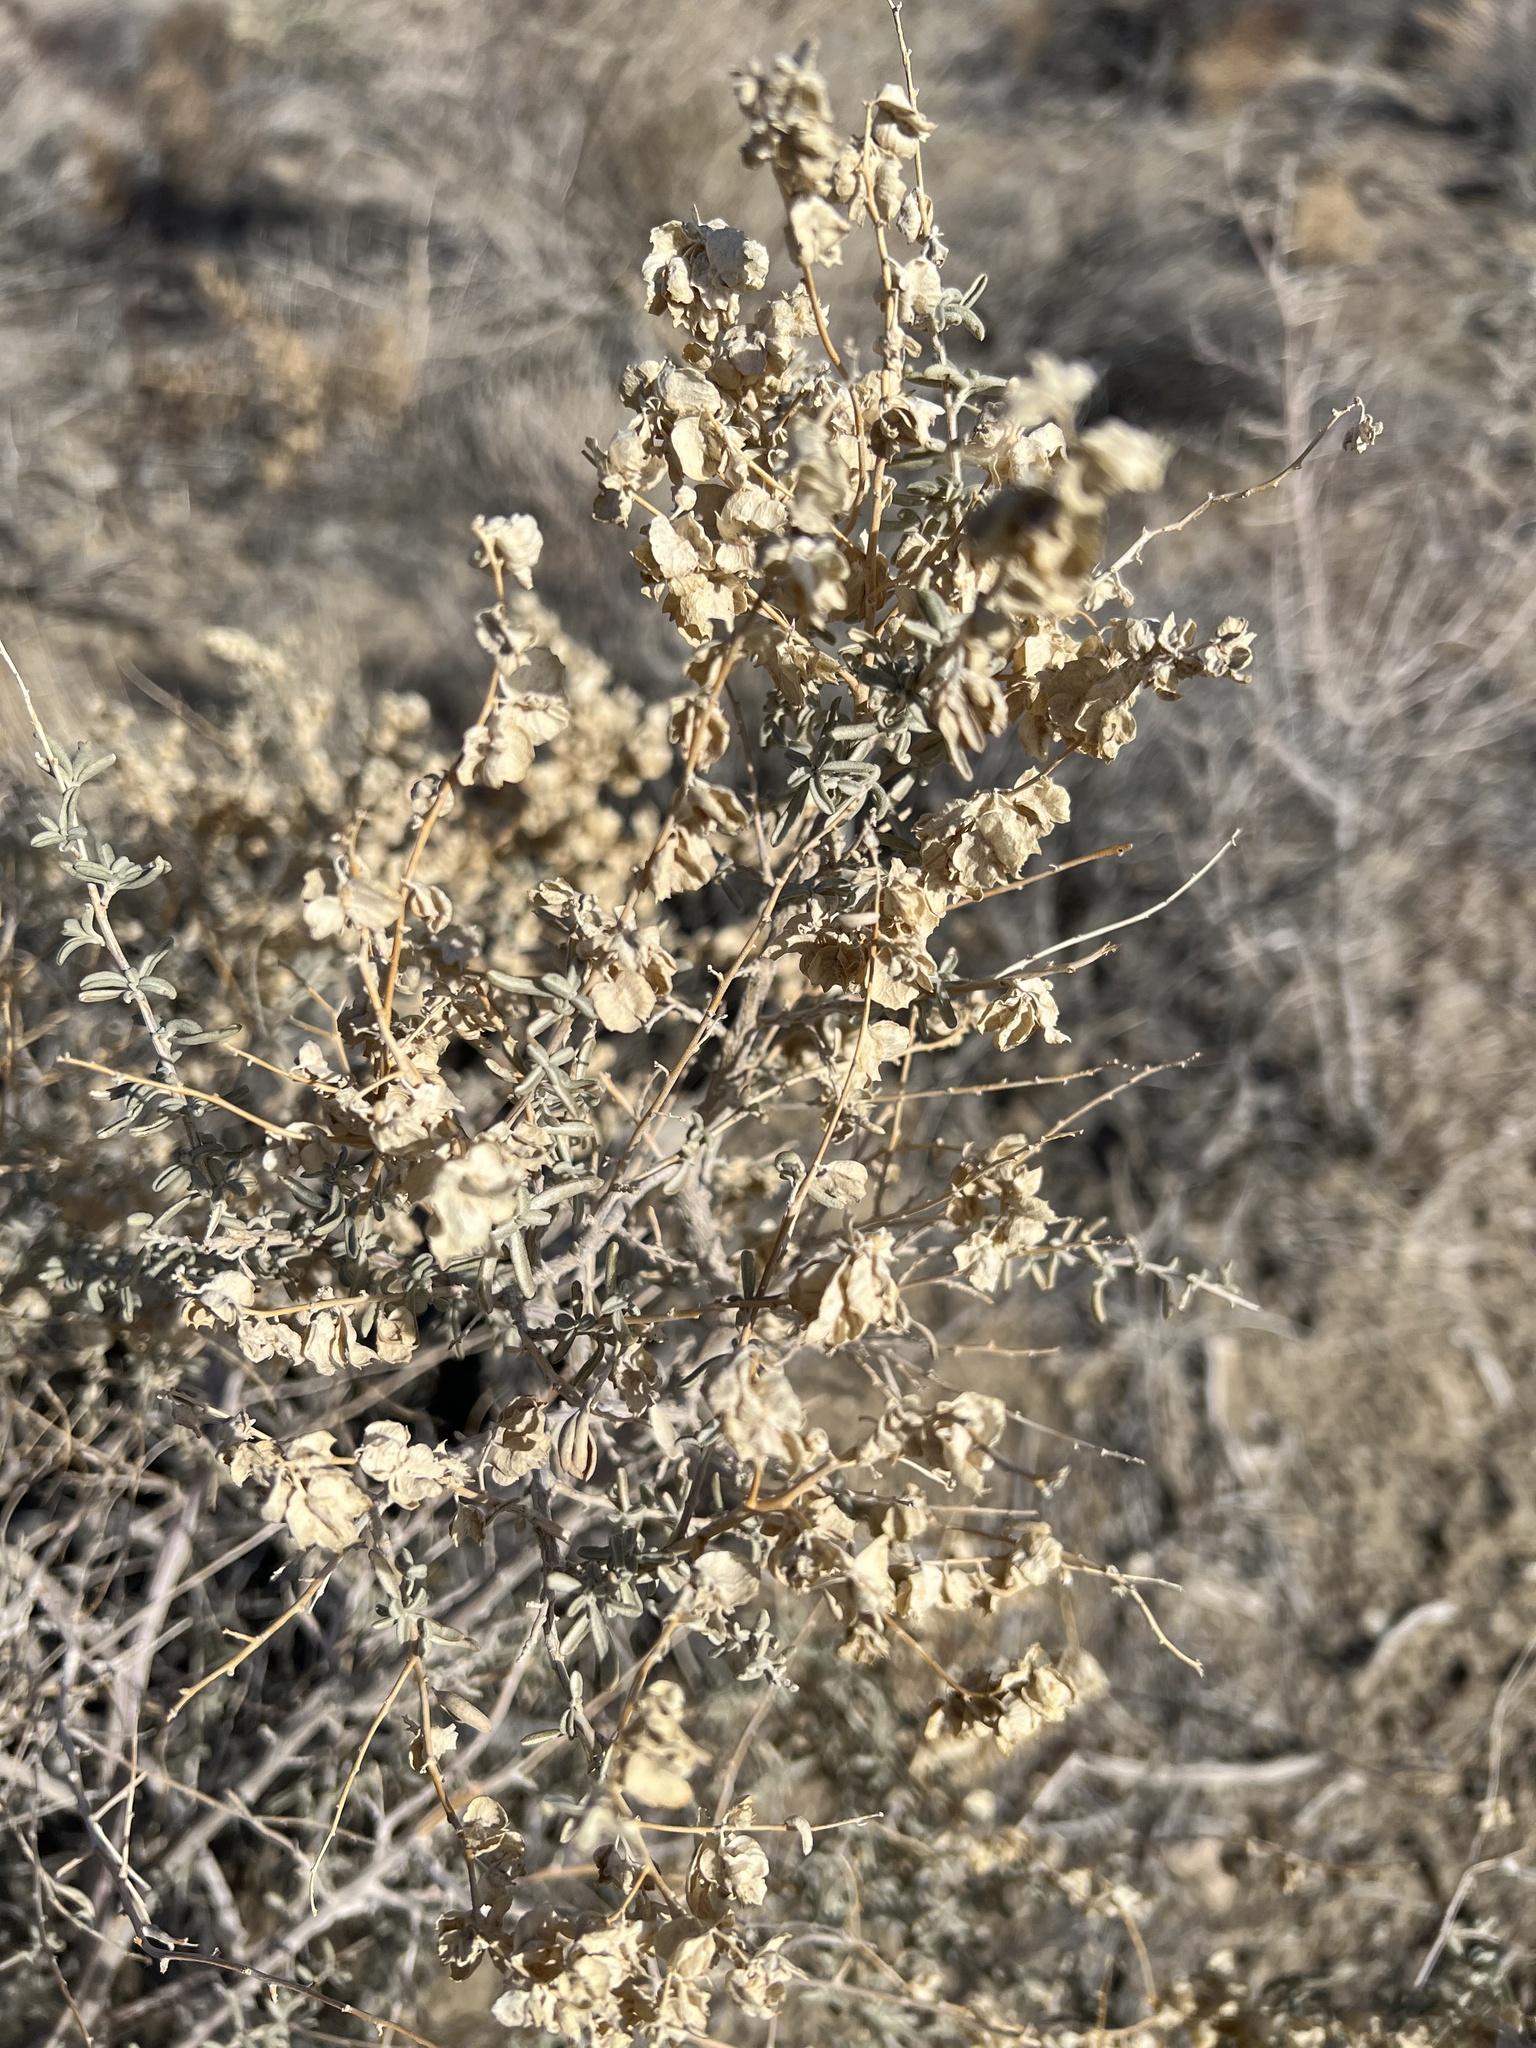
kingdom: Plantae
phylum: Tracheophyta
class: Magnoliopsida
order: Caryophyllales
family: Amaranthaceae
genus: Atriplex
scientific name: Atriplex canescens
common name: Four-wing saltbush
